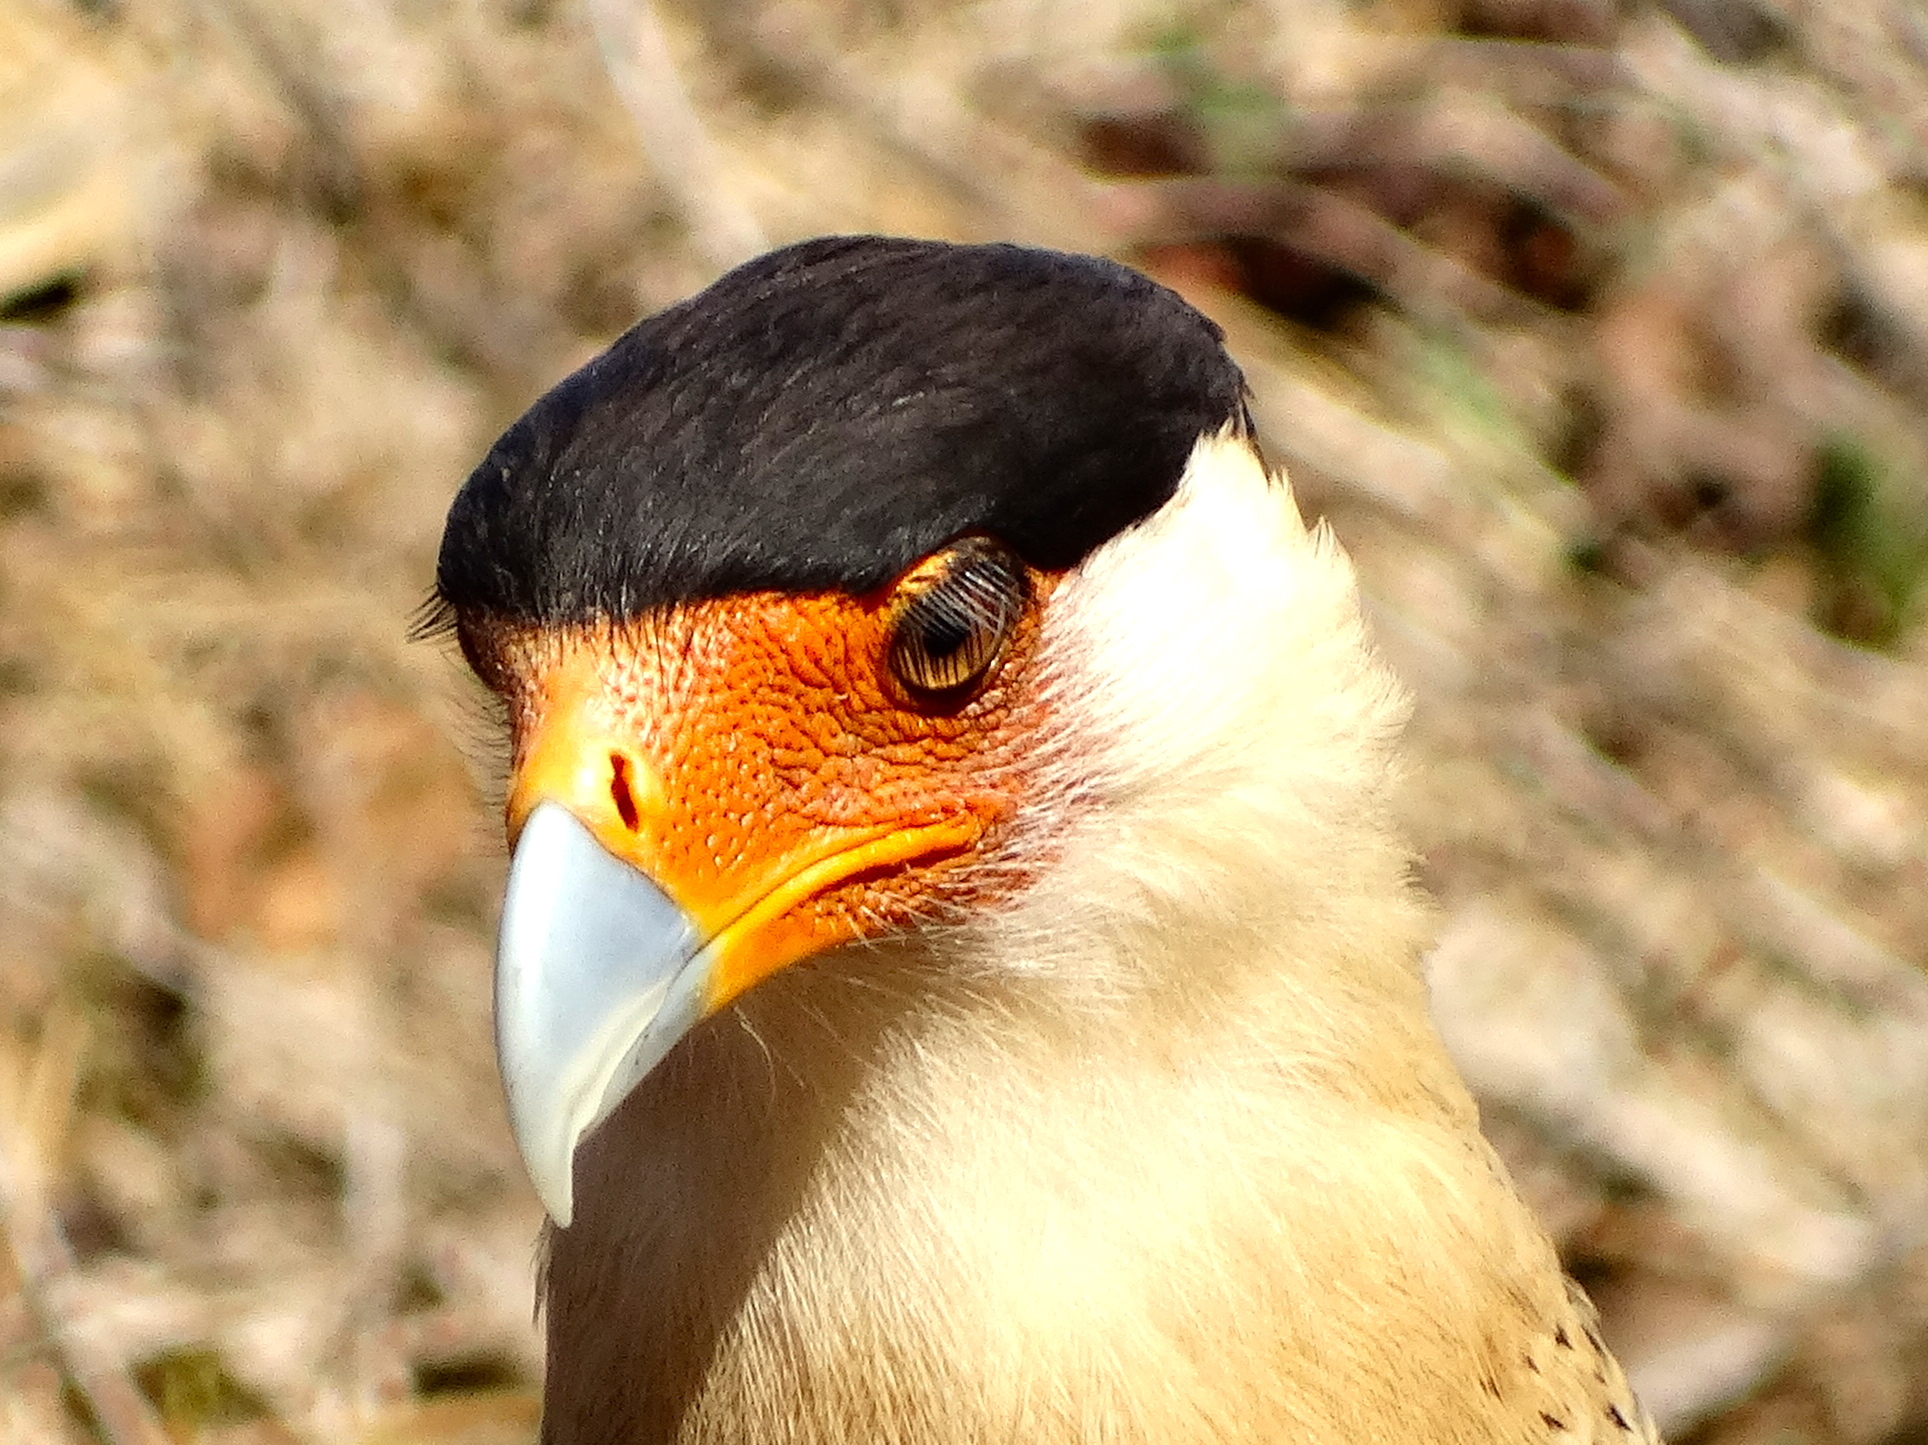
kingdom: Animalia
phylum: Chordata
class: Aves
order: Falconiformes
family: Falconidae
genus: Caracara
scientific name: Caracara plancus
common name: Southern caracara
